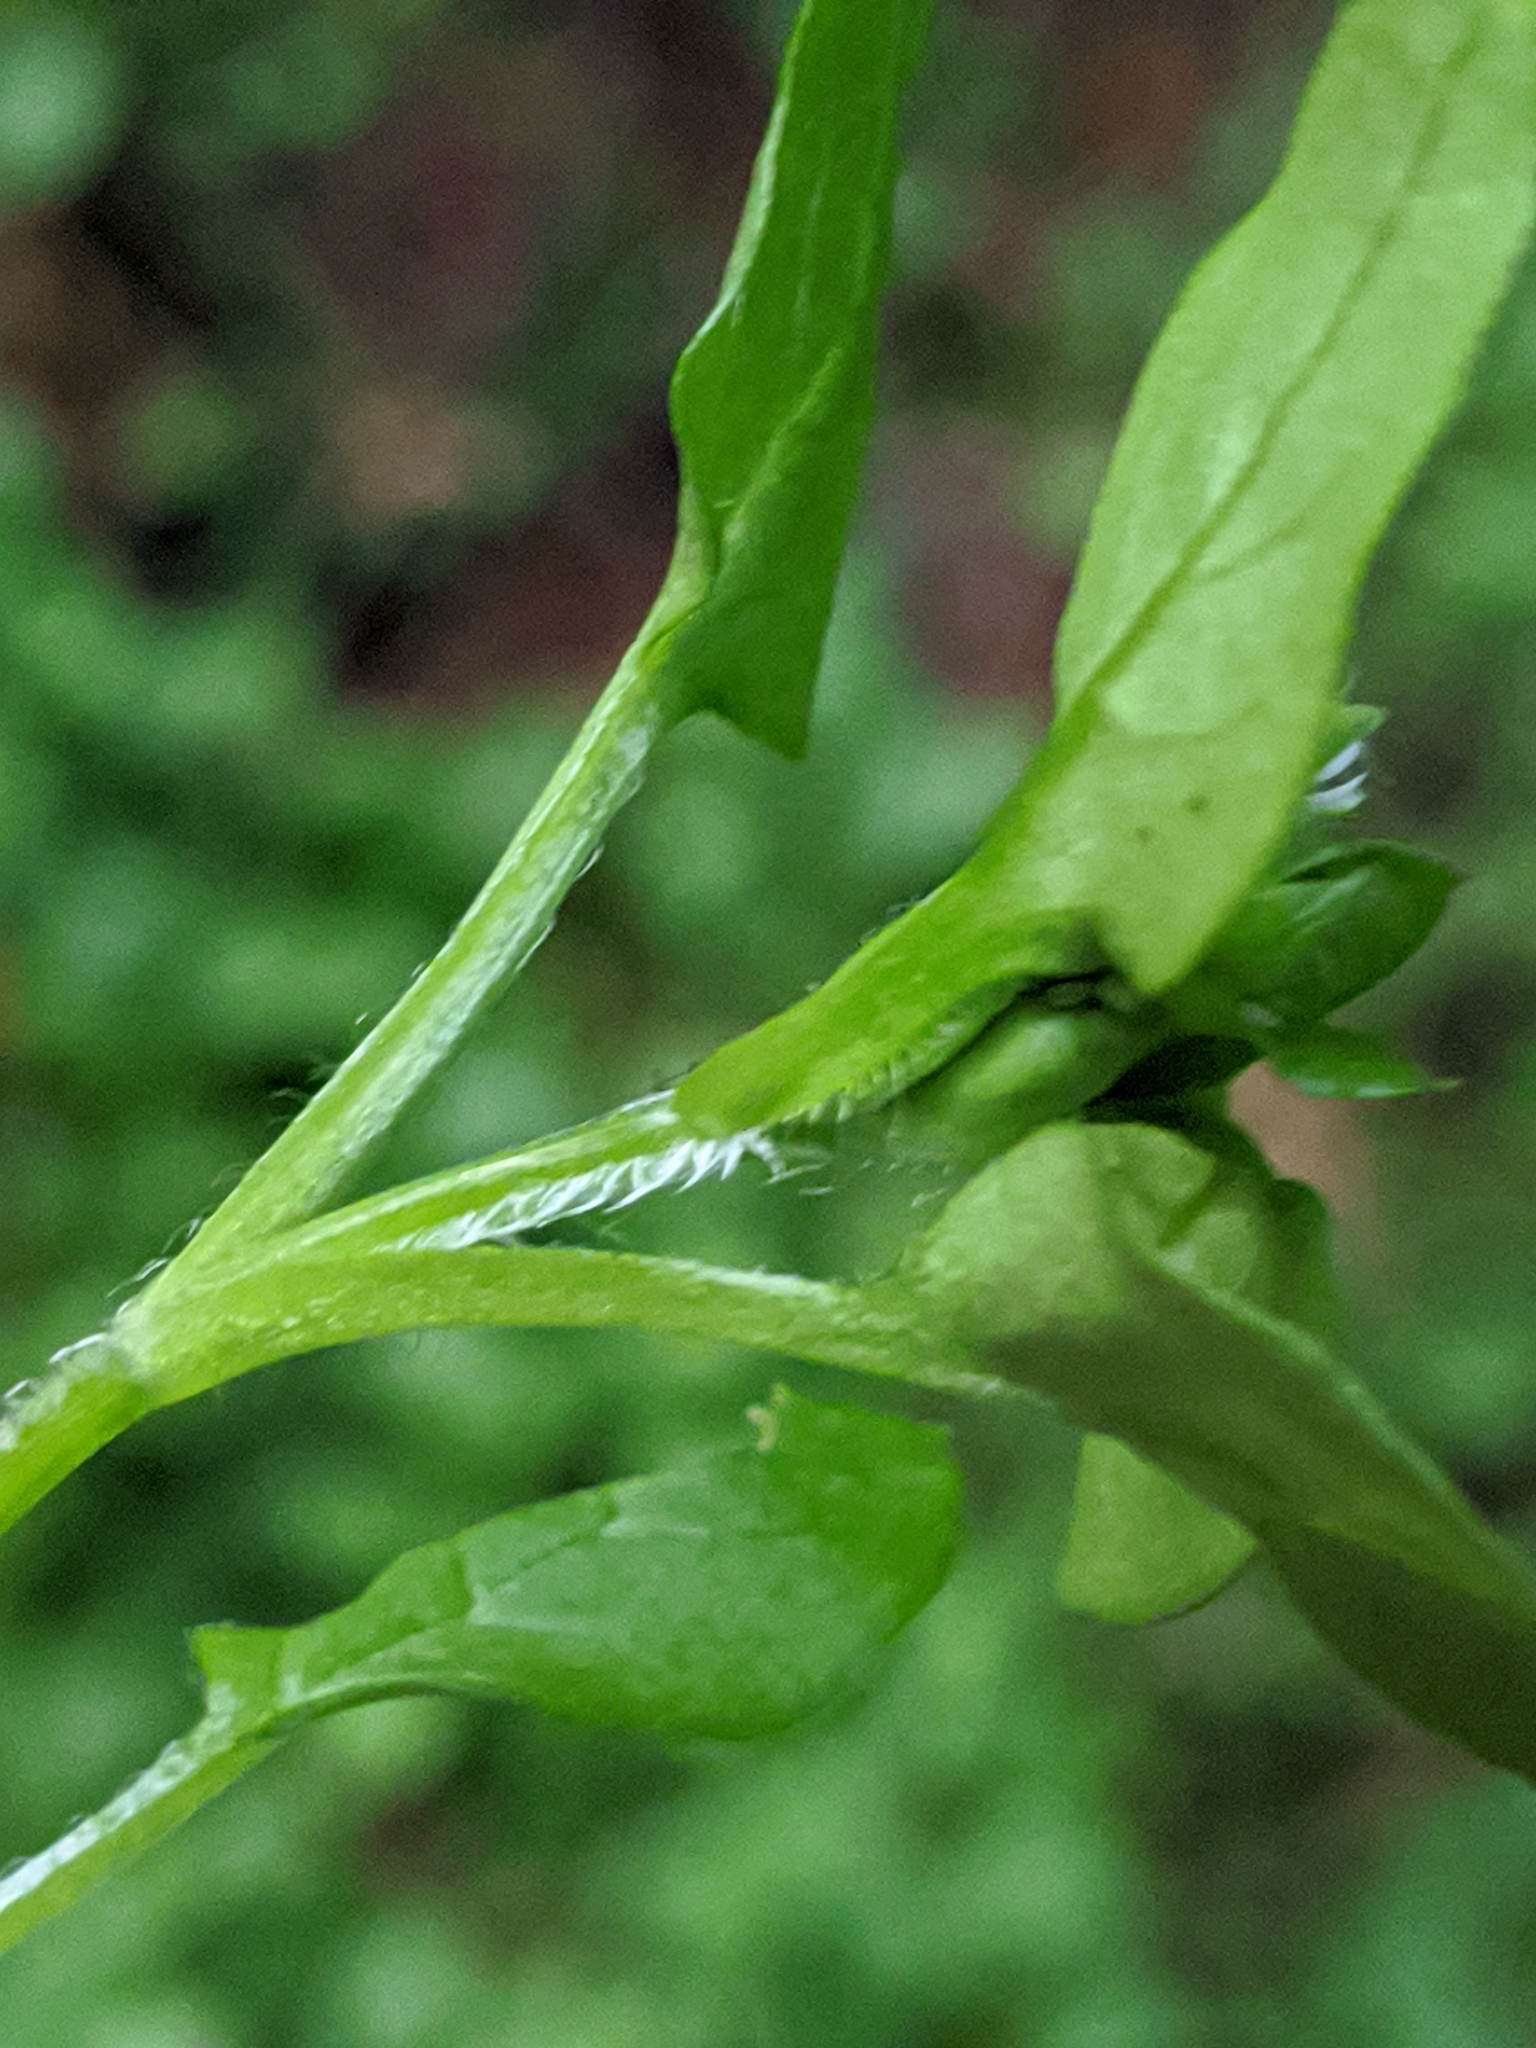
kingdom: Plantae
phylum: Tracheophyta
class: Magnoliopsida
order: Caryophyllales
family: Caryophyllaceae
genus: Stellaria
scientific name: Stellaria media
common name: Common chickweed
